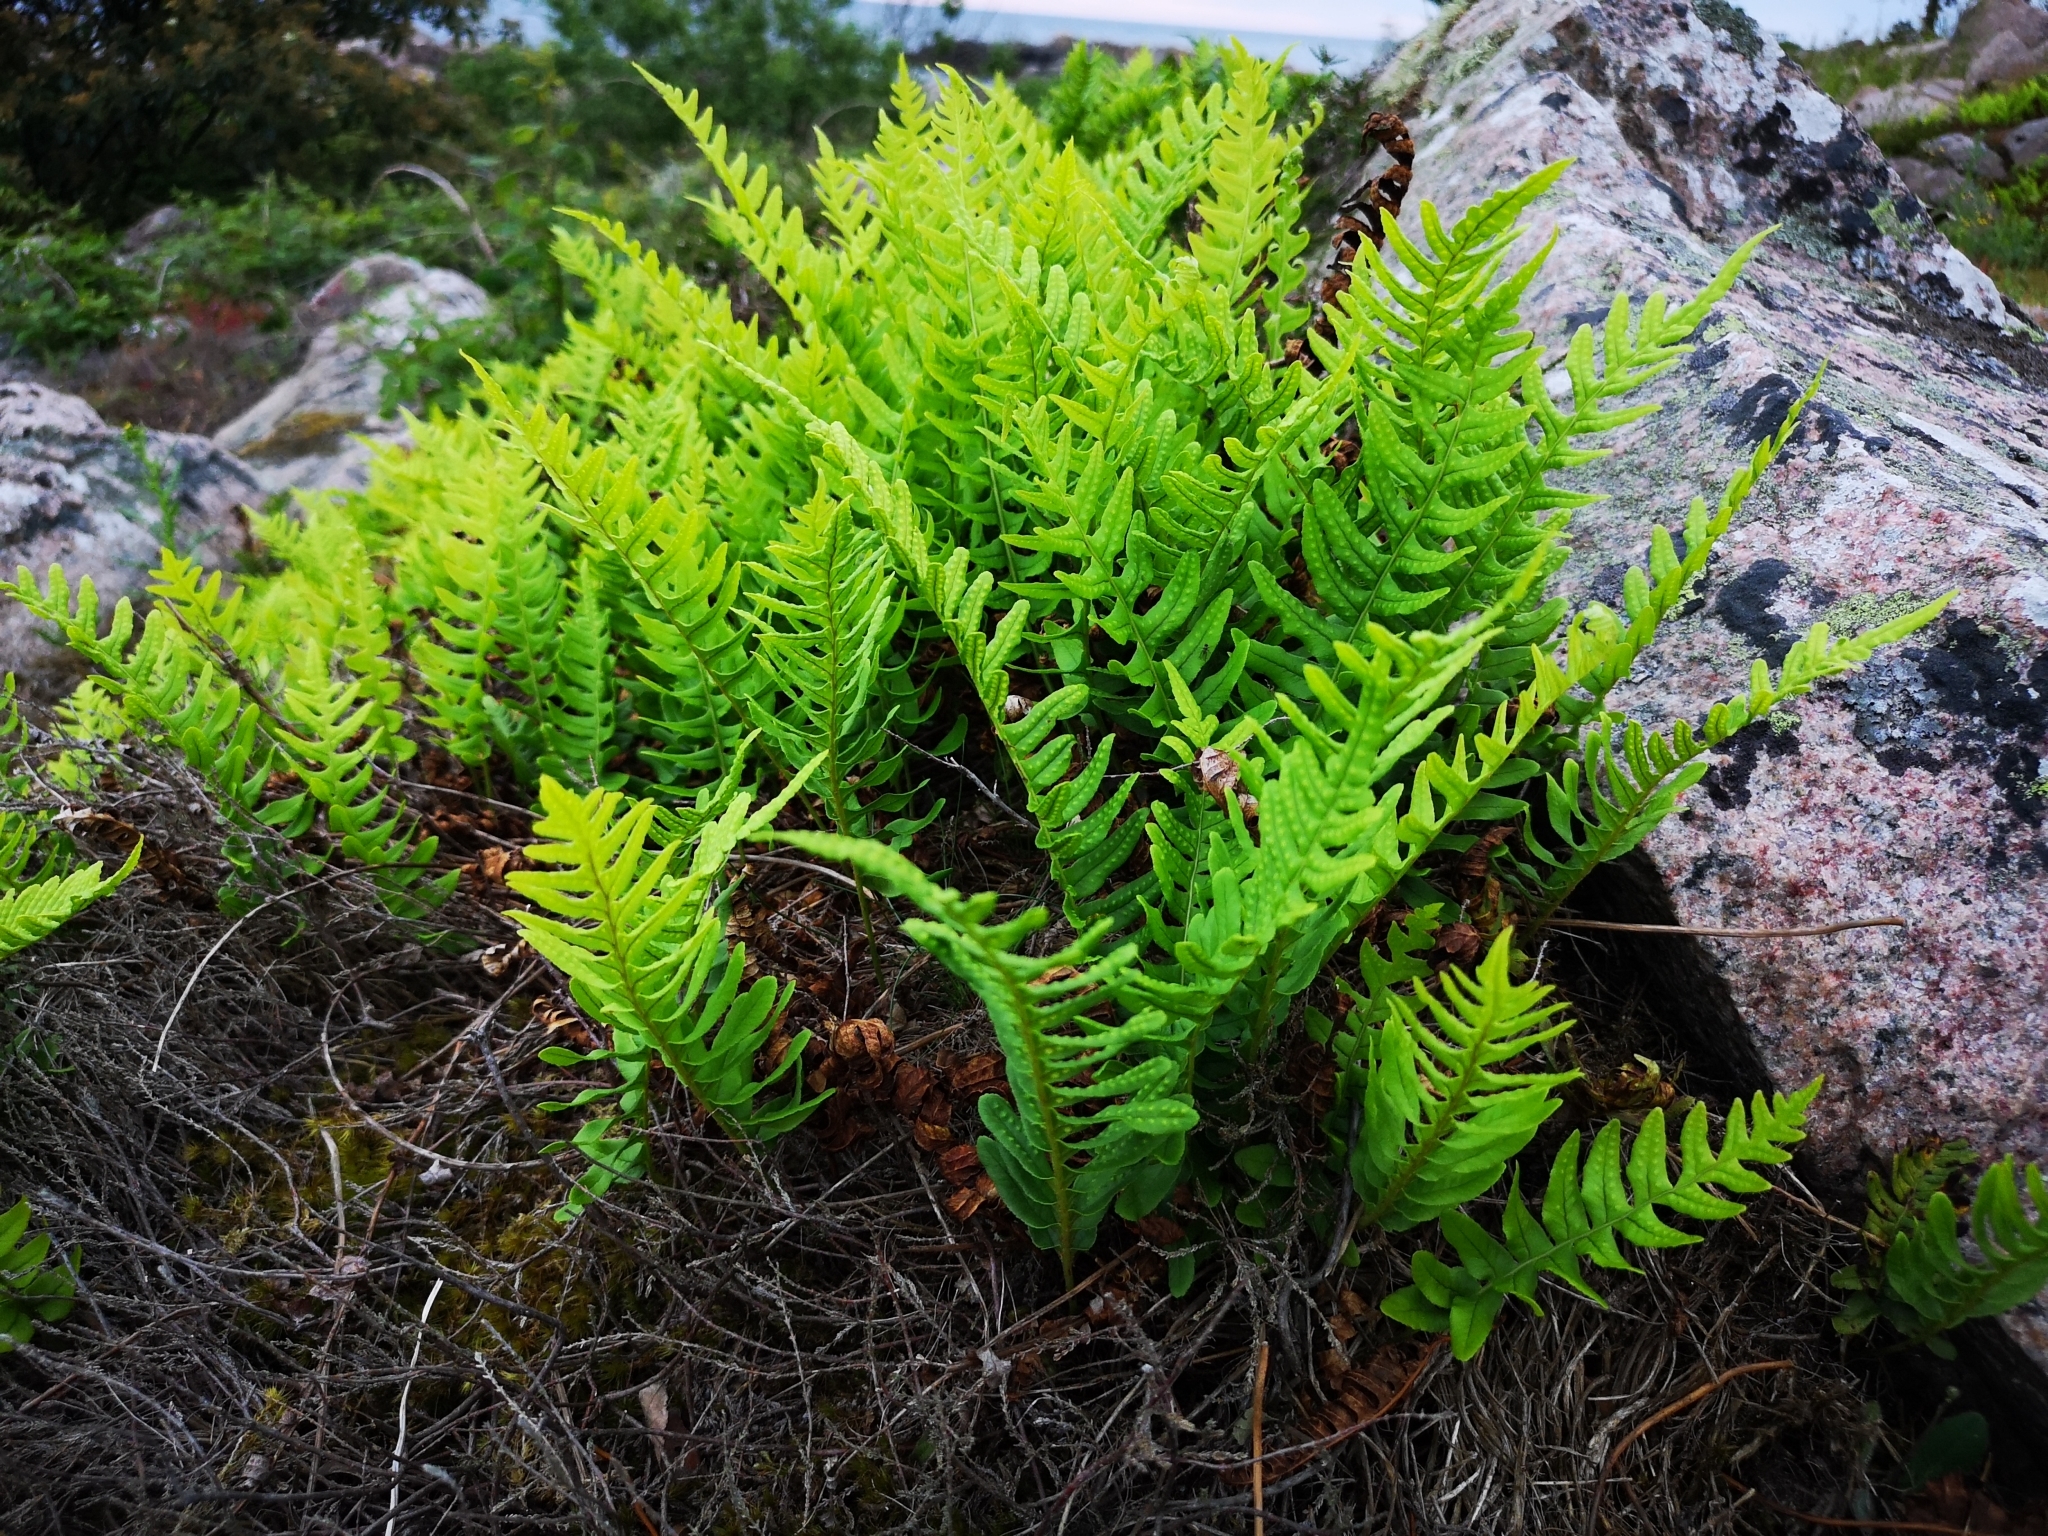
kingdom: Plantae
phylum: Tracheophyta
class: Polypodiopsida
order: Polypodiales
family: Polypodiaceae
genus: Polypodium
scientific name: Polypodium vulgare
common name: Common polypody
